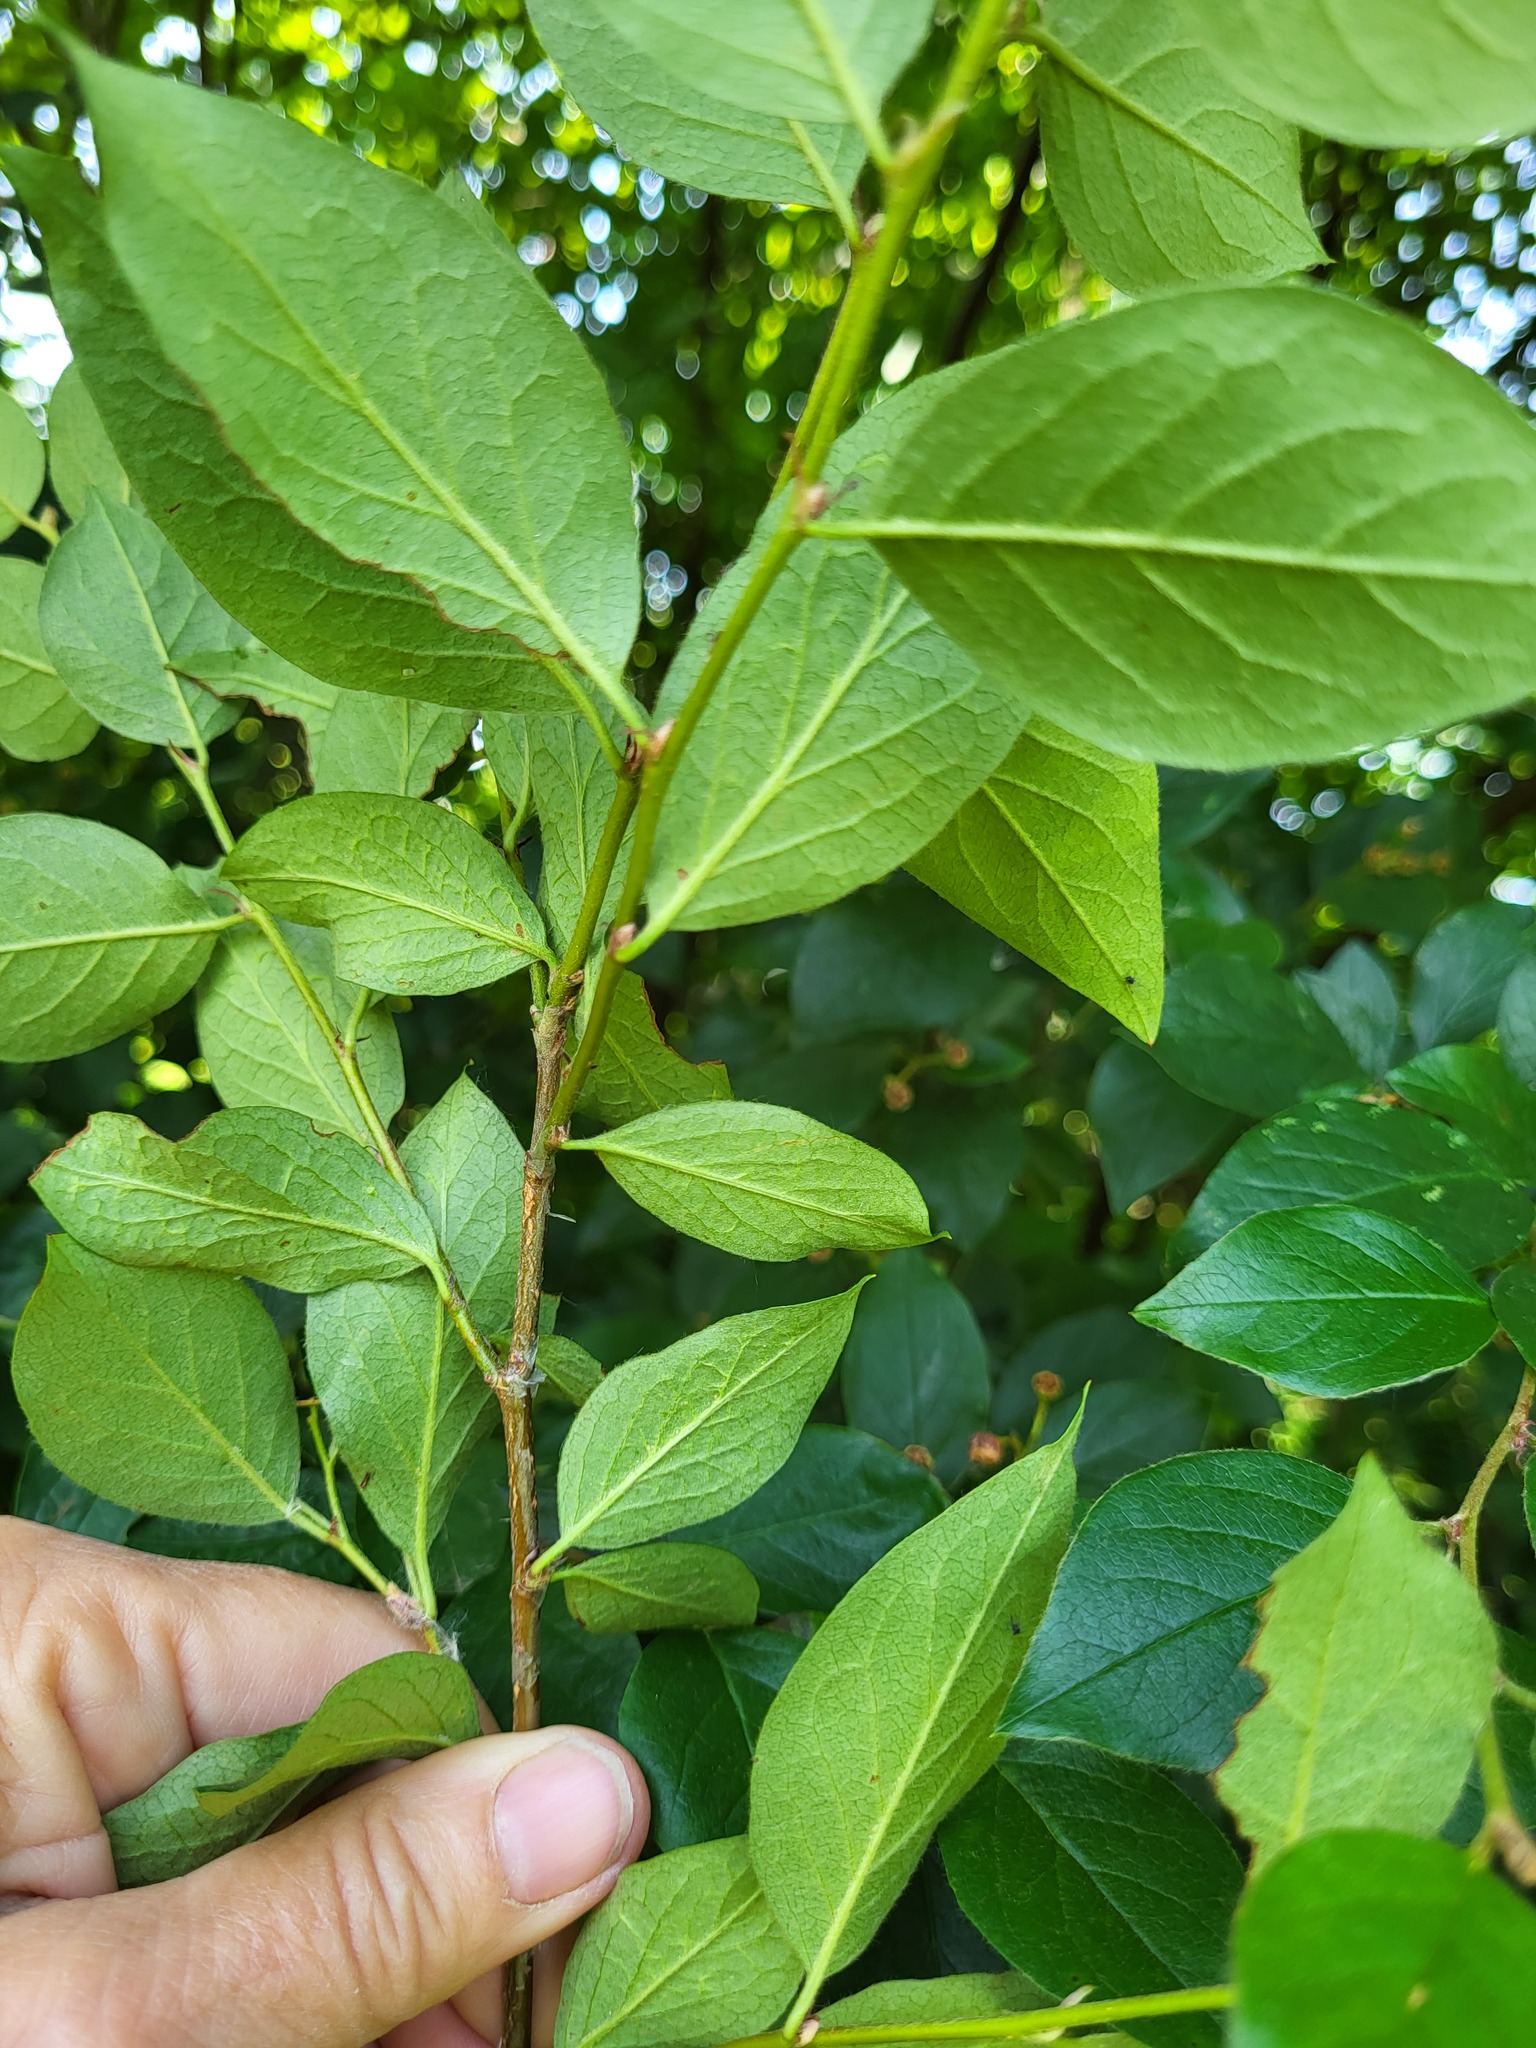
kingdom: Plantae
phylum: Tracheophyta
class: Magnoliopsida
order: Rosales
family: Rosaceae
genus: Cotoneaster
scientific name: Cotoneaster acutifolius
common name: Peking cotoneaster
